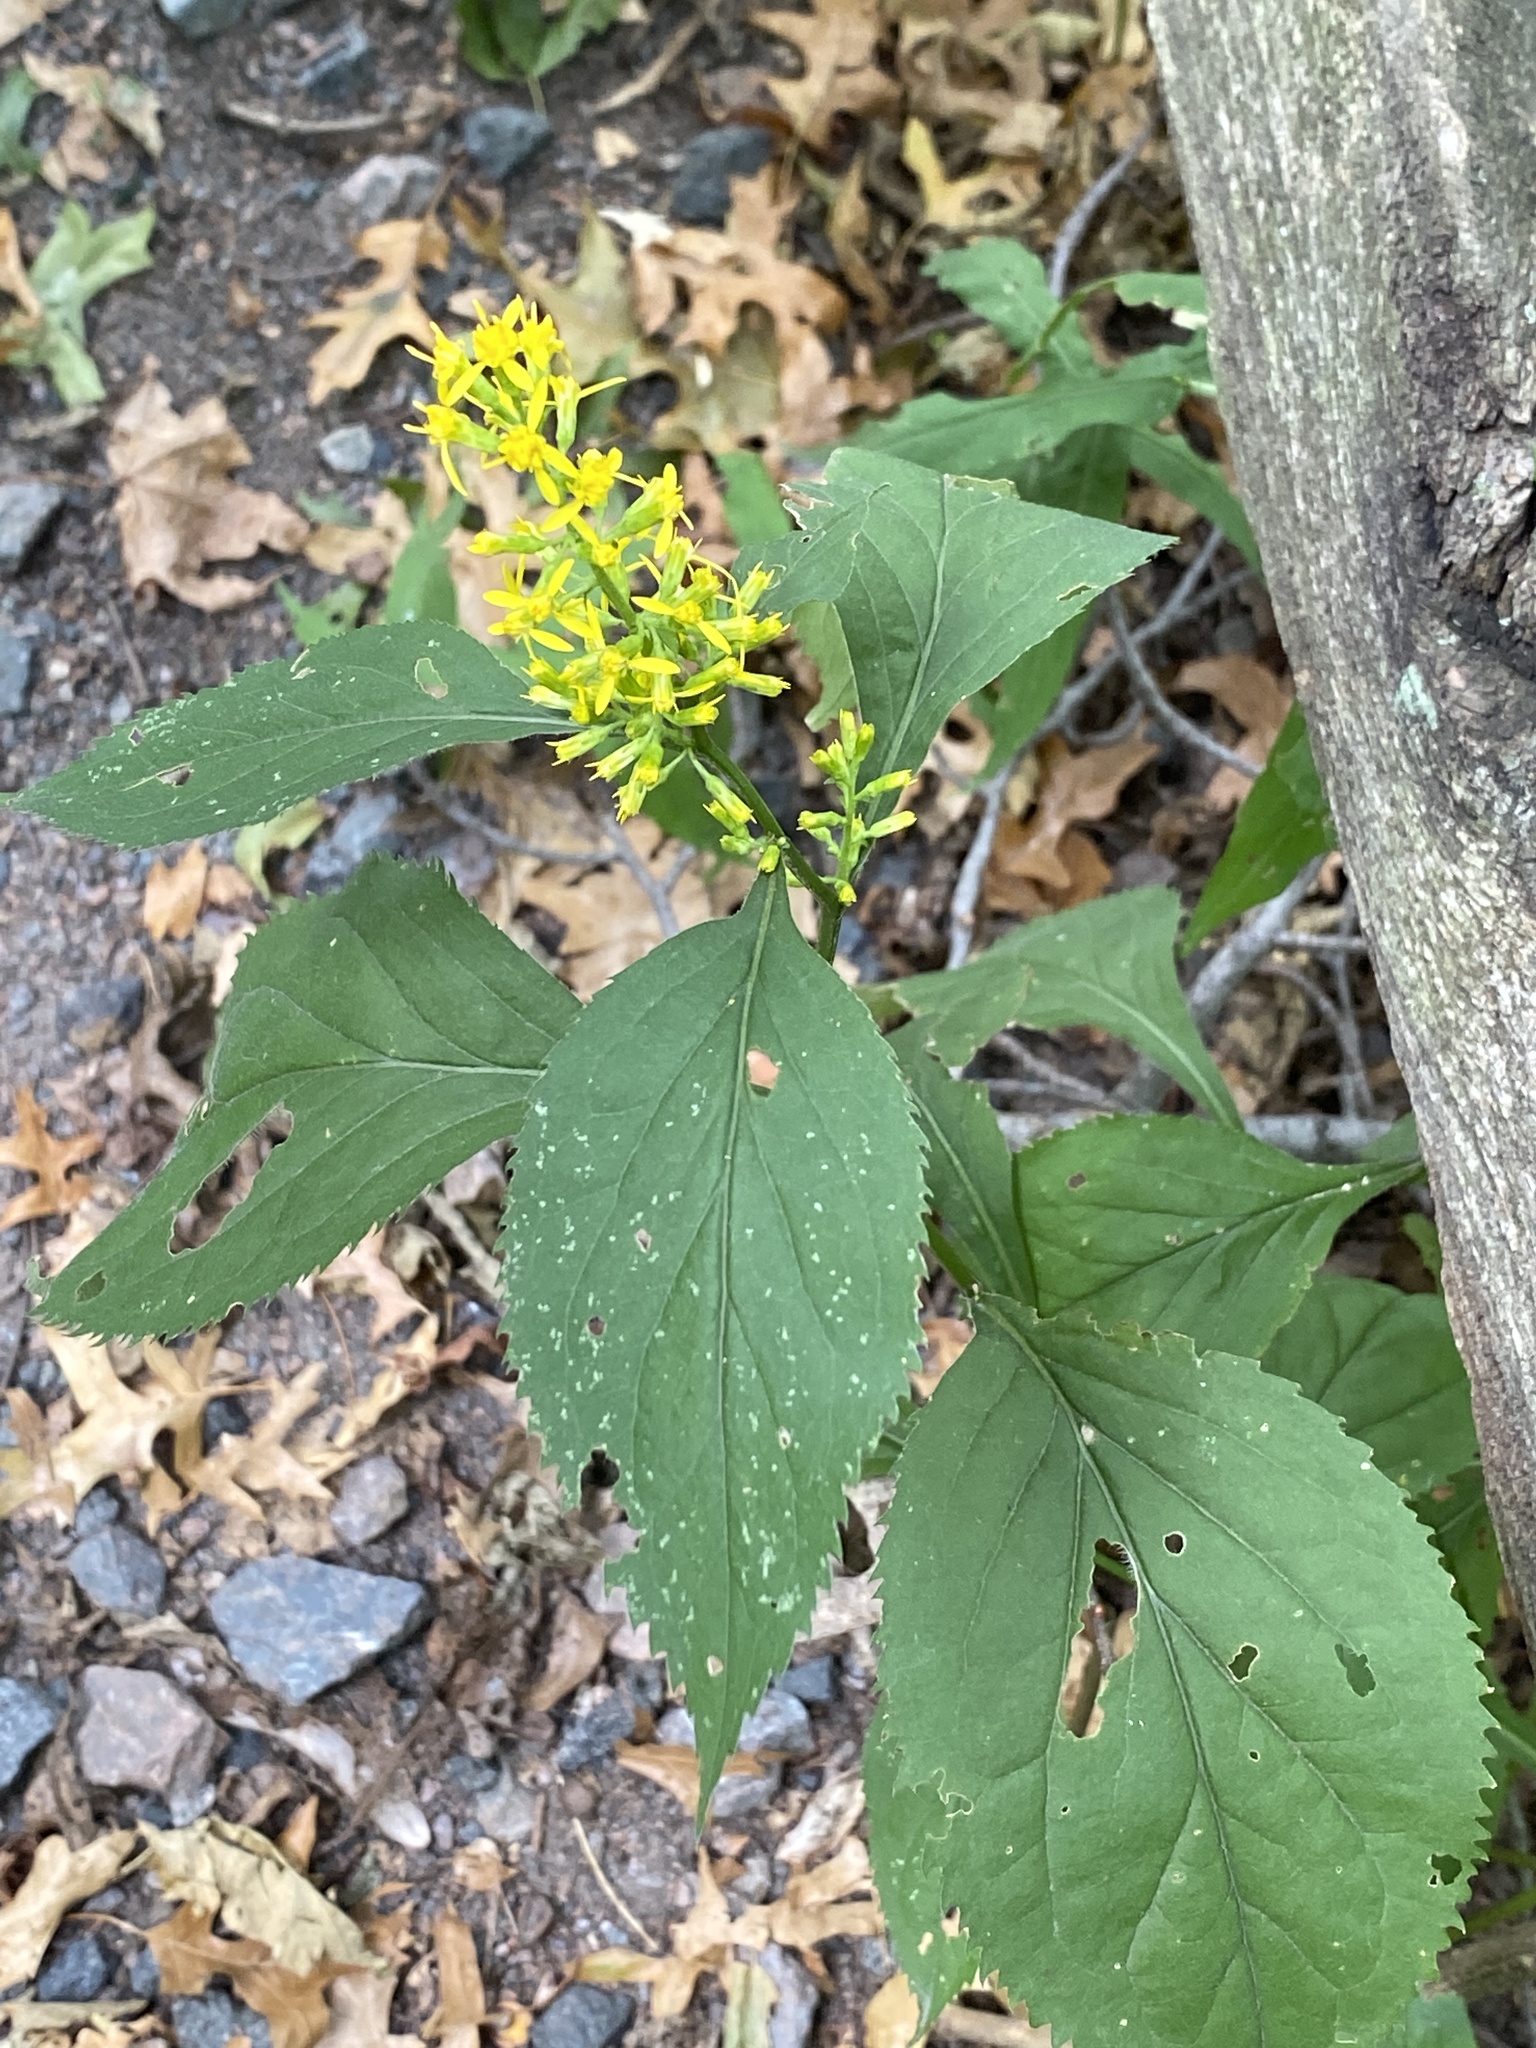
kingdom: Plantae
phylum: Tracheophyta
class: Magnoliopsida
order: Asterales
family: Asteraceae
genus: Solidago
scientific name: Solidago flexicaulis
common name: Zig-zag goldenrod
